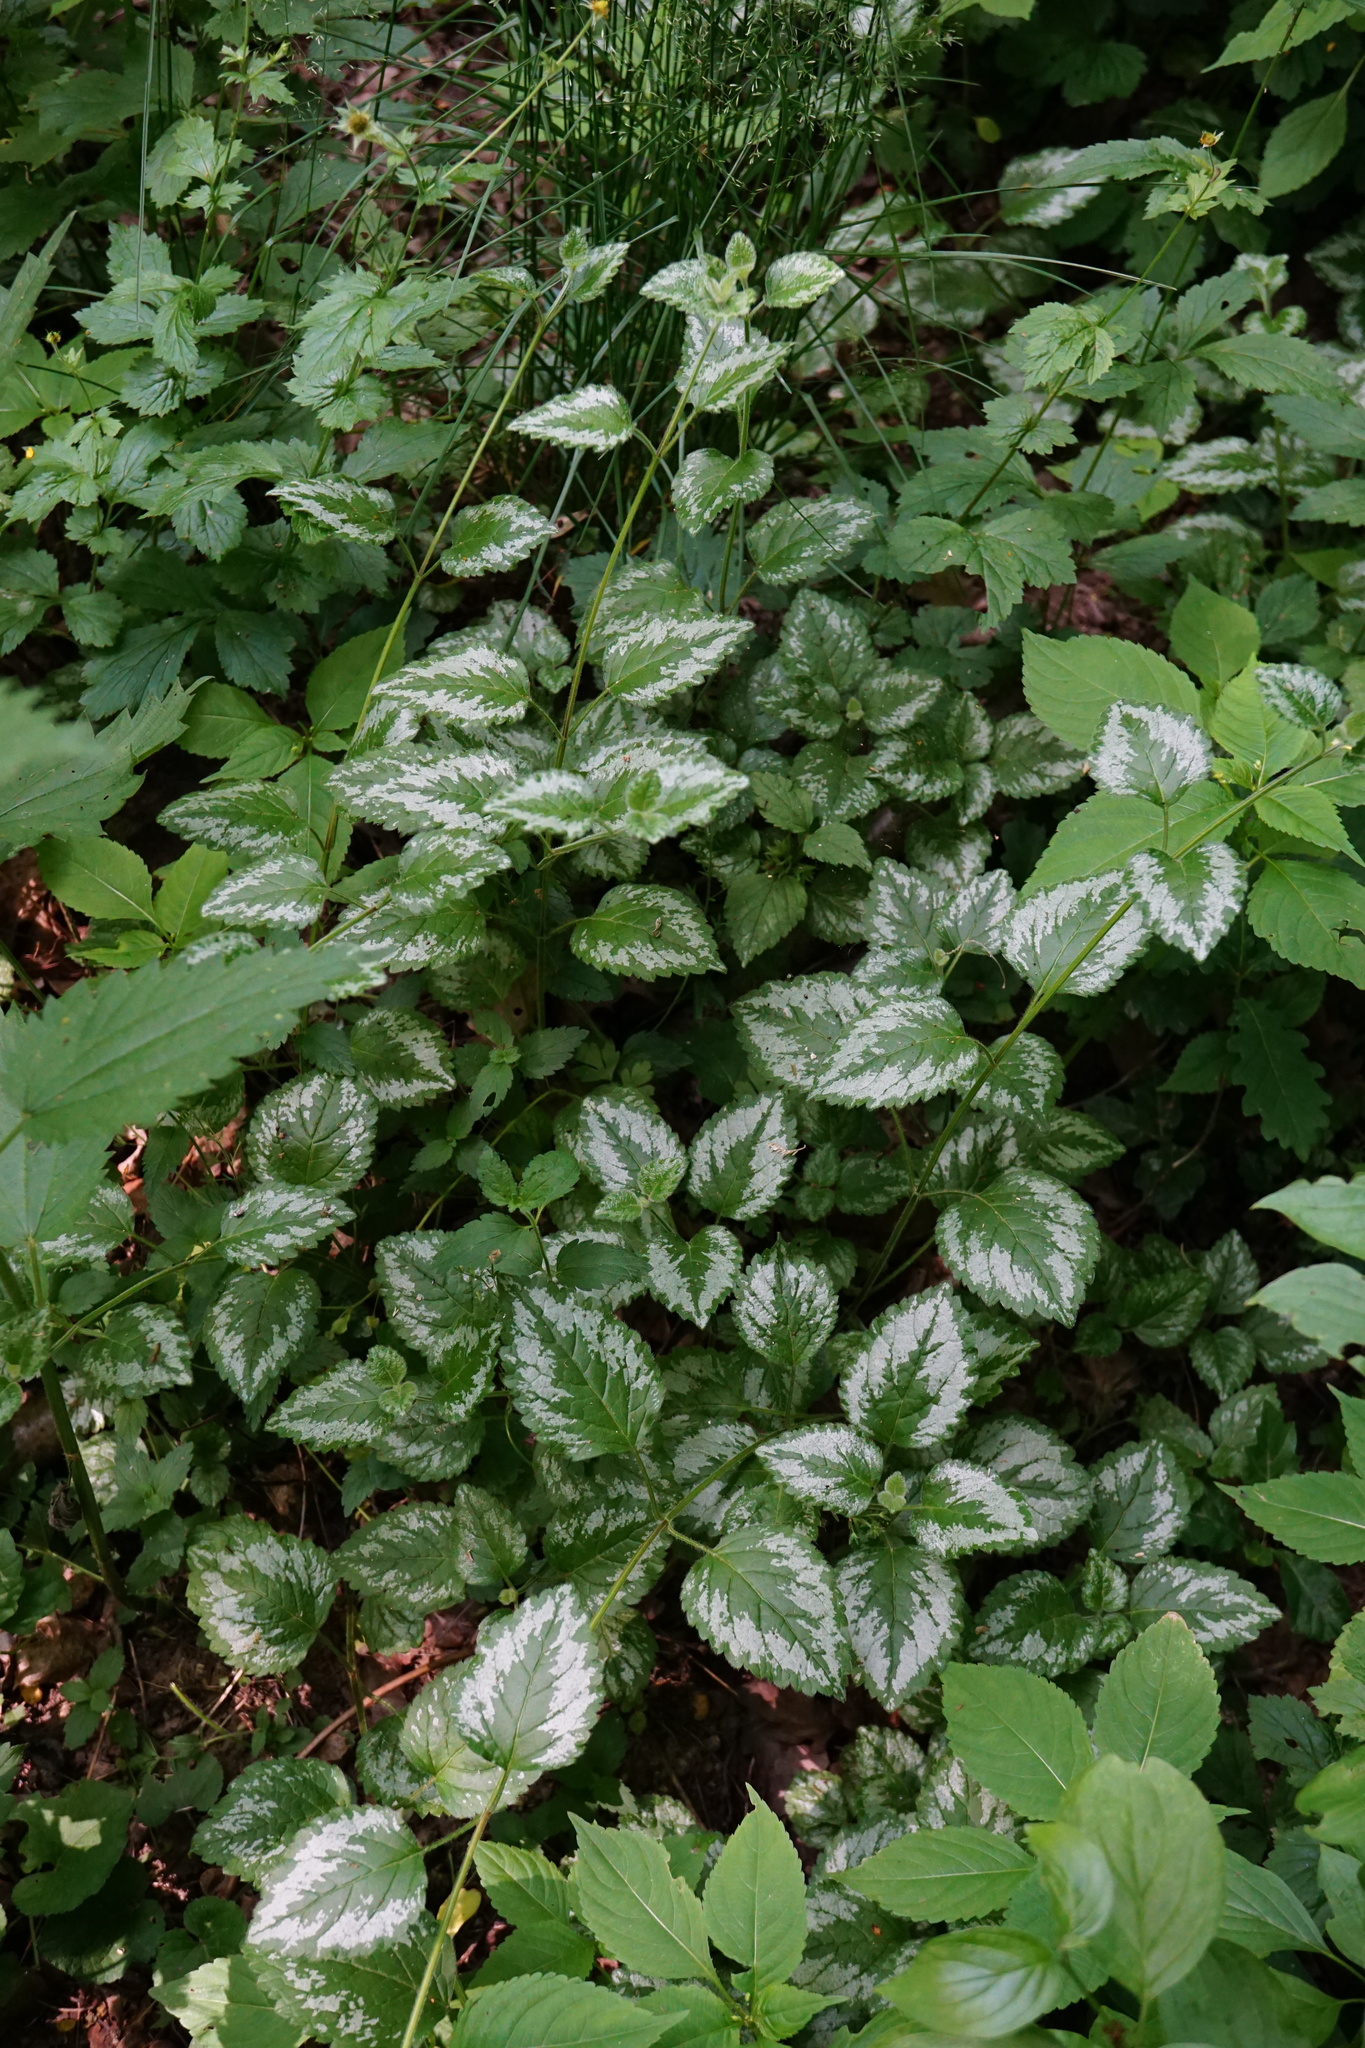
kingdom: Plantae
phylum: Tracheophyta
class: Magnoliopsida
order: Lamiales
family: Lamiaceae
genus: Lamium
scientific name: Lamium galeobdolon
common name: Yellow archangel
